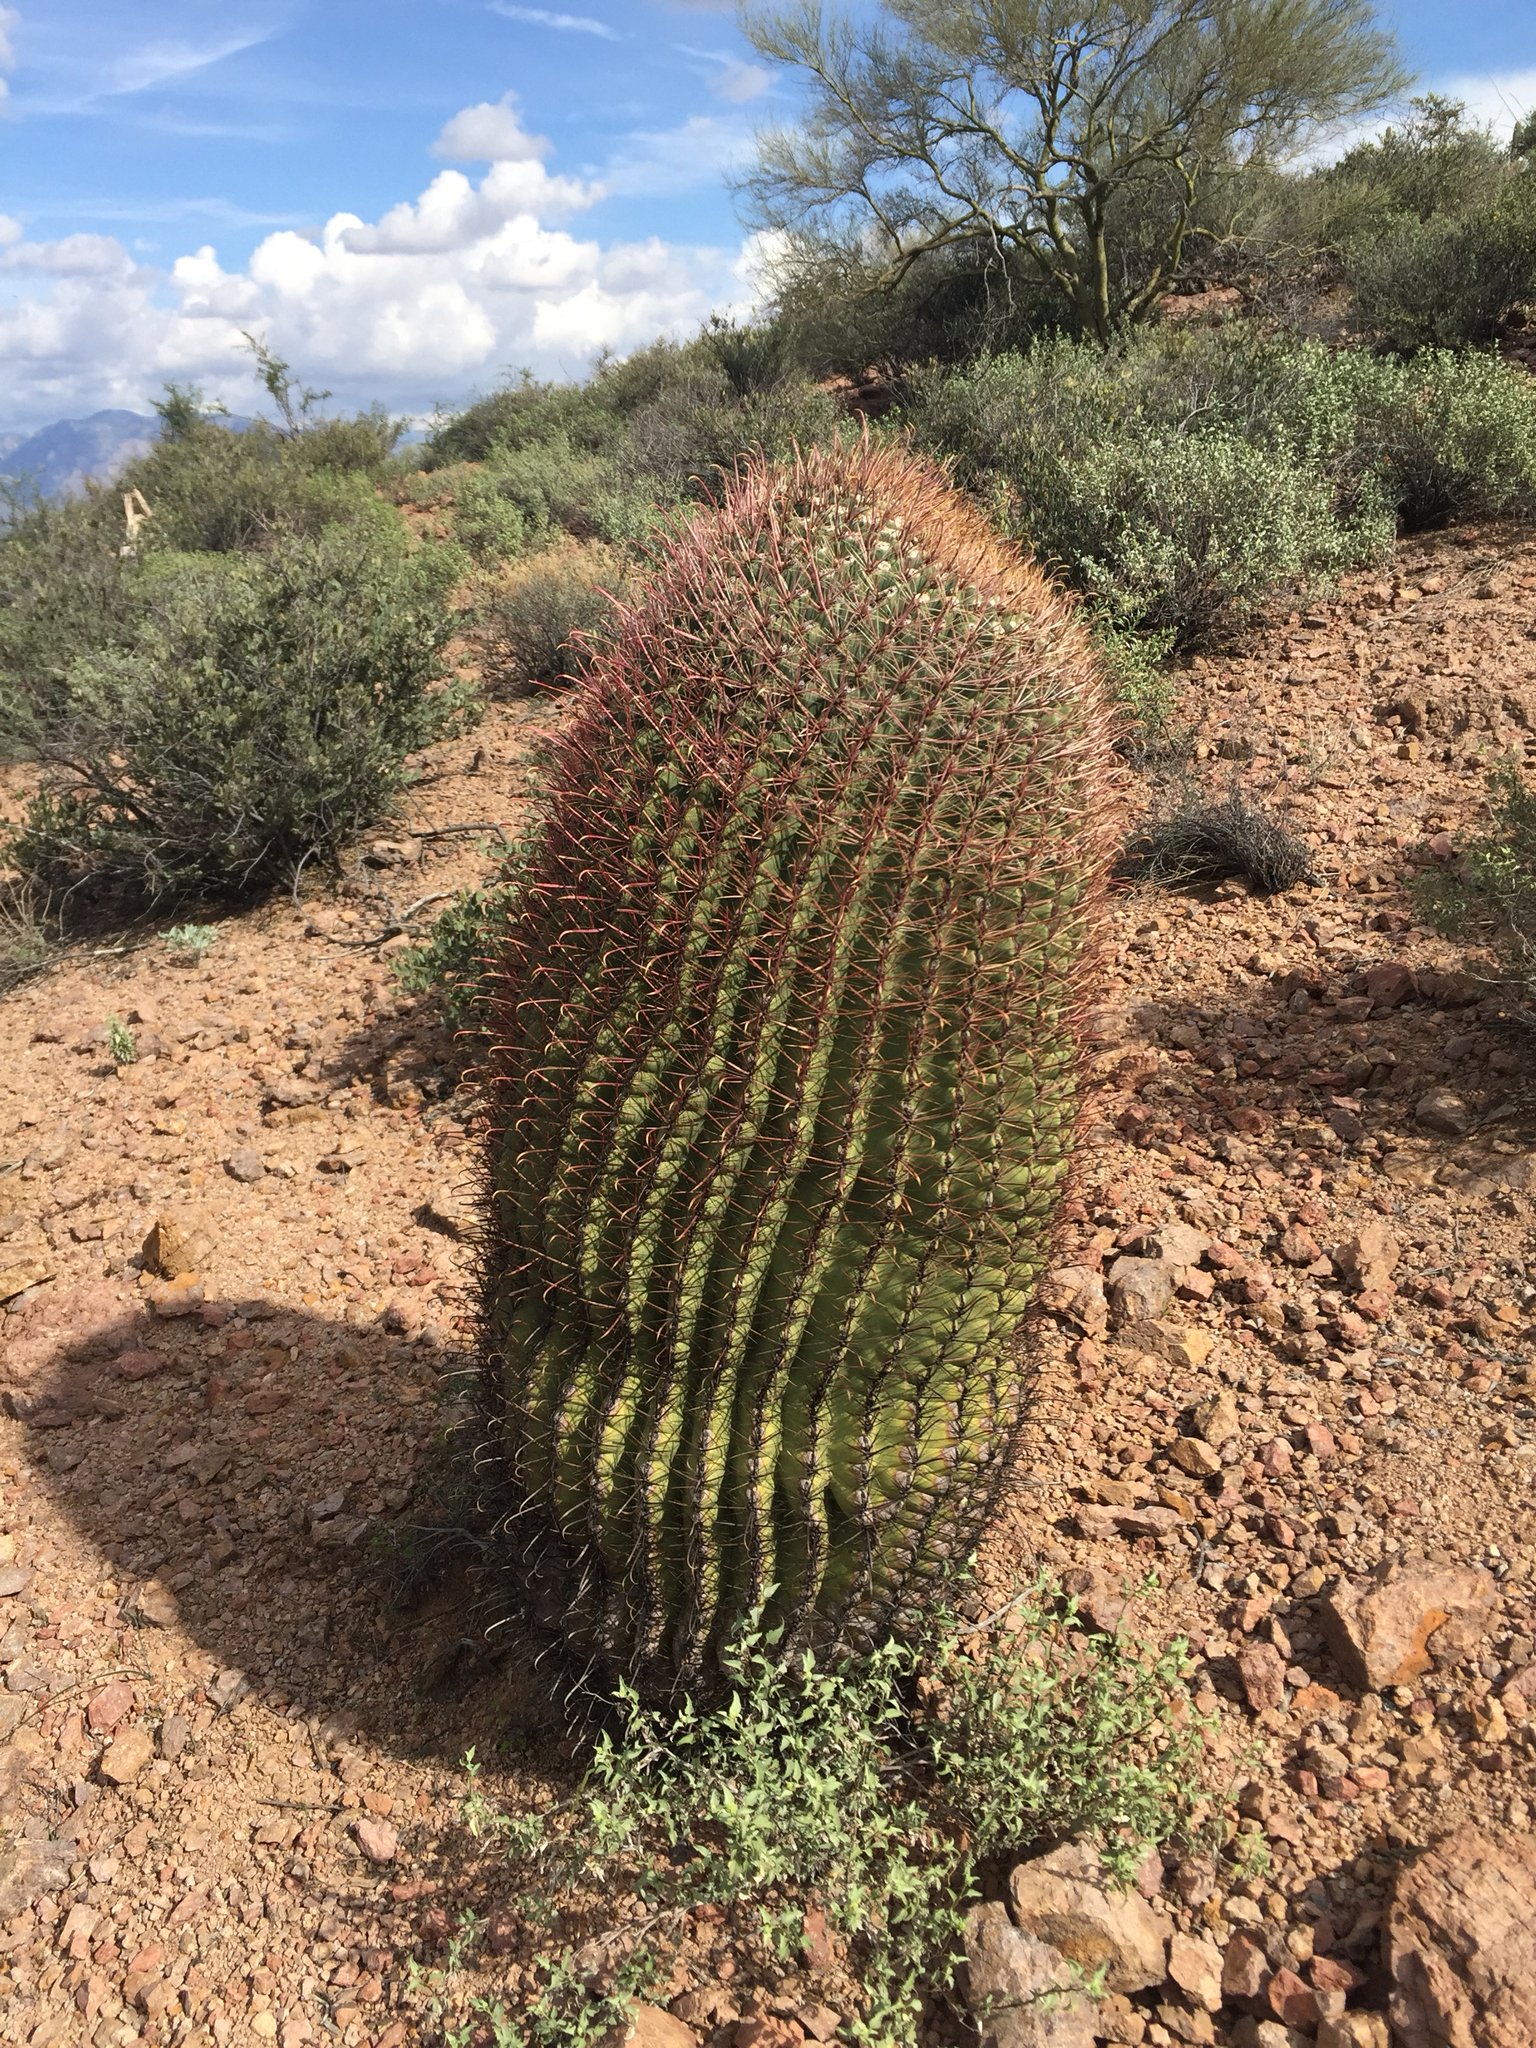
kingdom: Plantae
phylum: Tracheophyta
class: Magnoliopsida
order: Caryophyllales
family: Cactaceae
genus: Ferocactus
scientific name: Ferocactus wislizeni
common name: Candy barrel cactus
